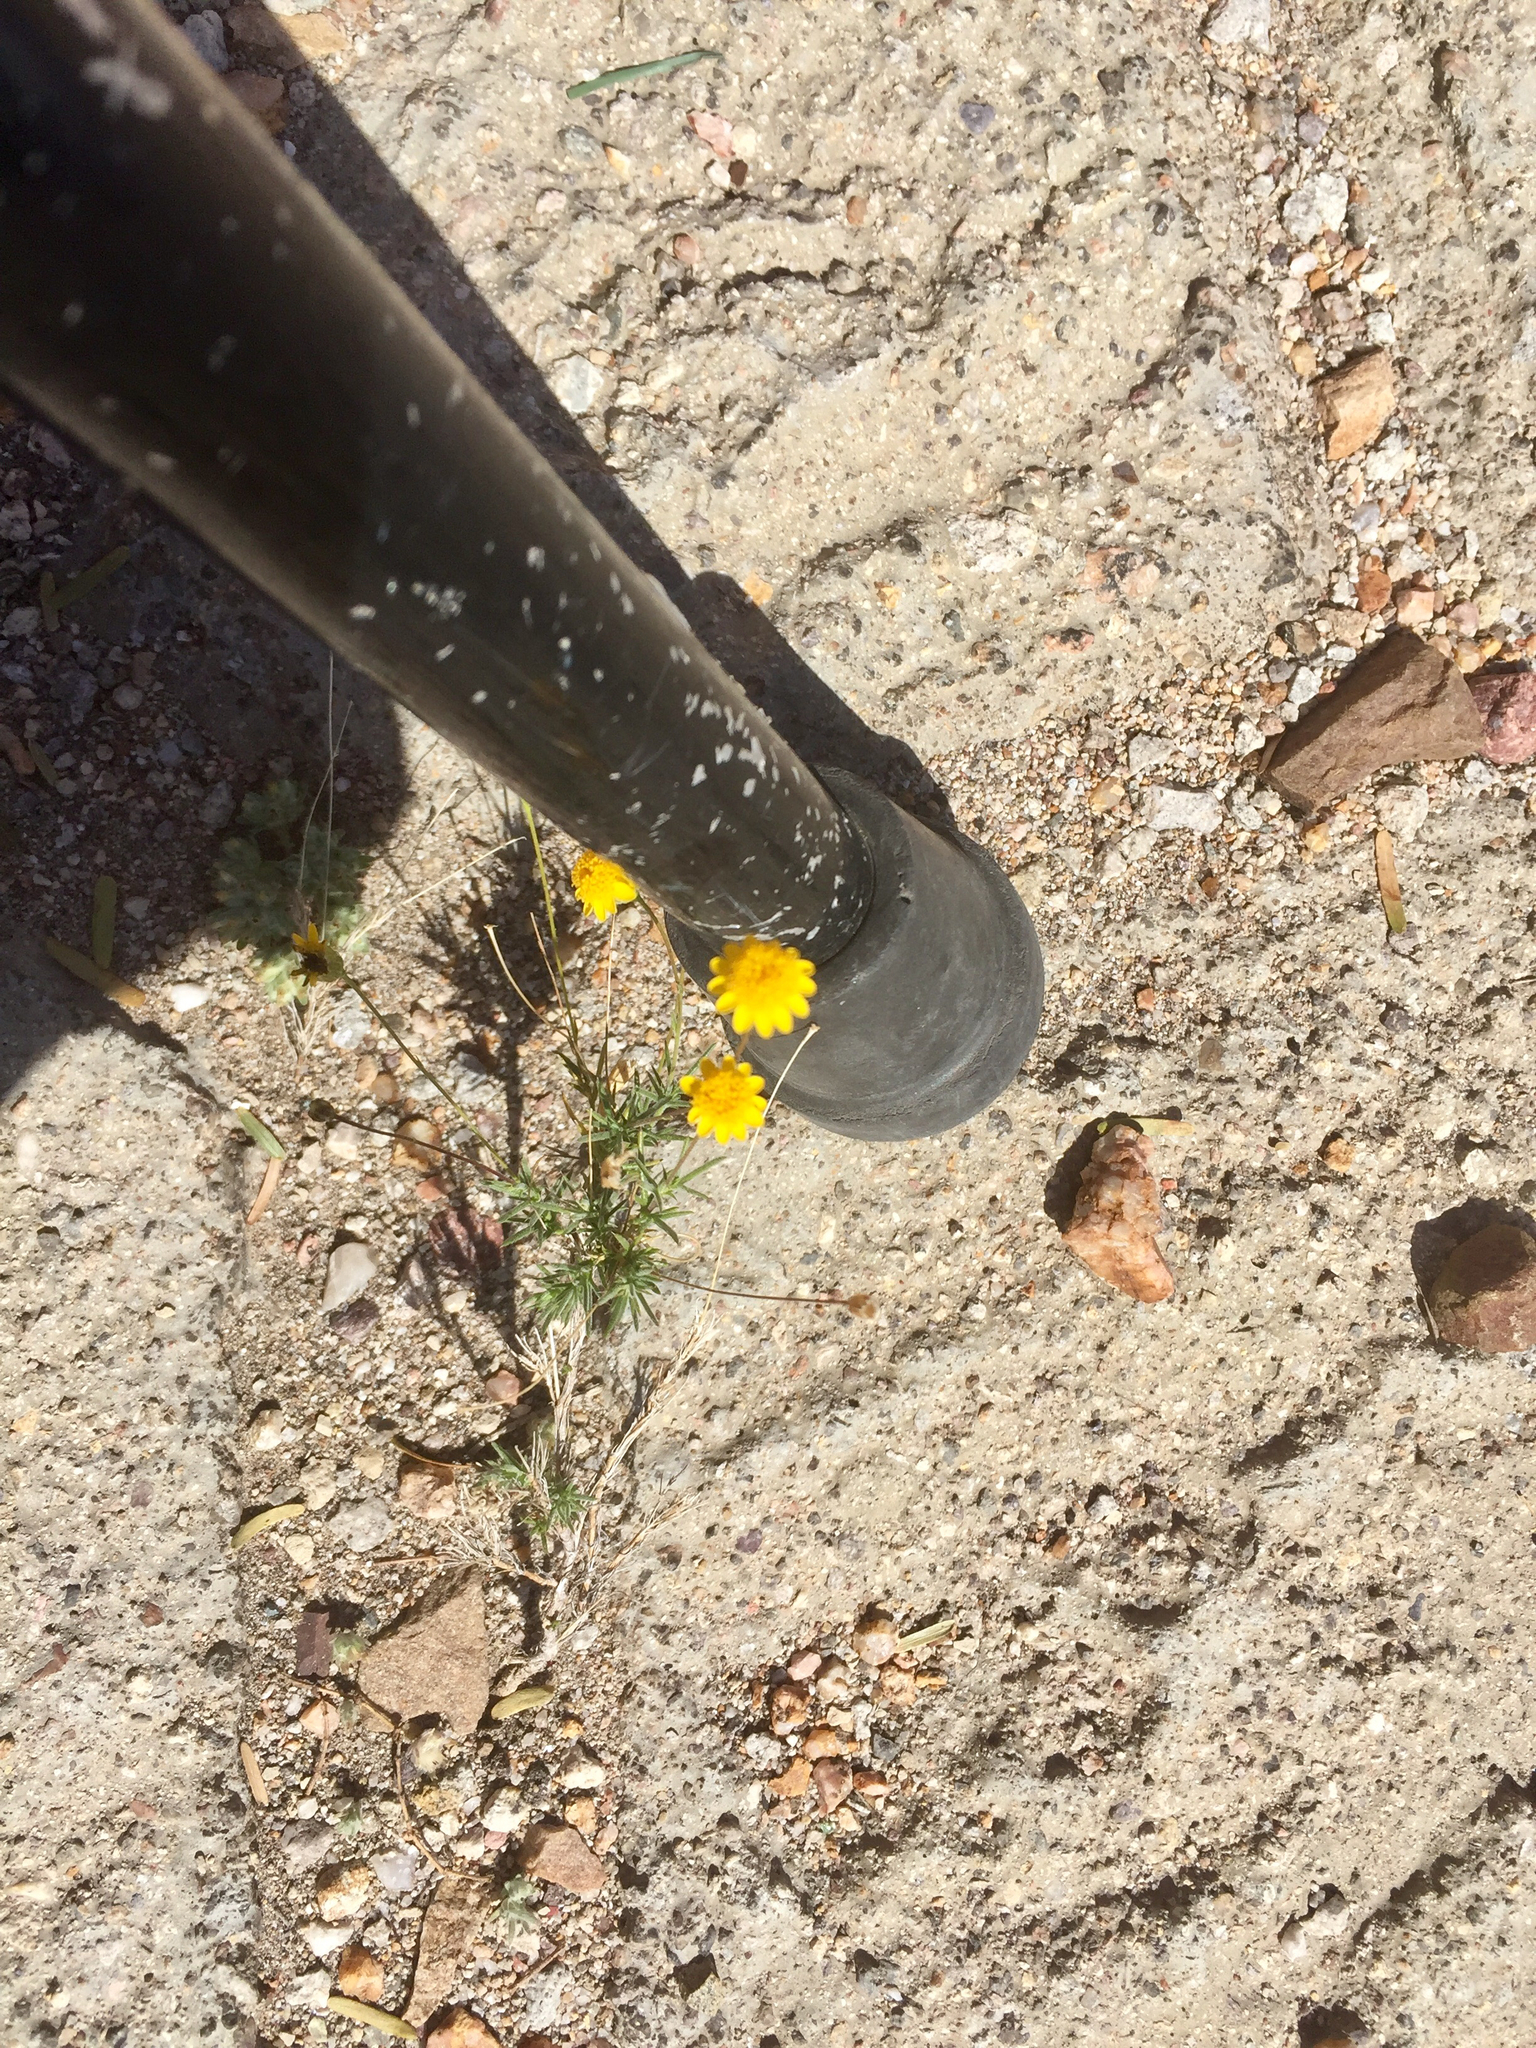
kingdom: Plantae
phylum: Tracheophyta
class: Magnoliopsida
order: Asterales
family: Asteraceae
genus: Thymophylla
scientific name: Thymophylla pentachaeta
